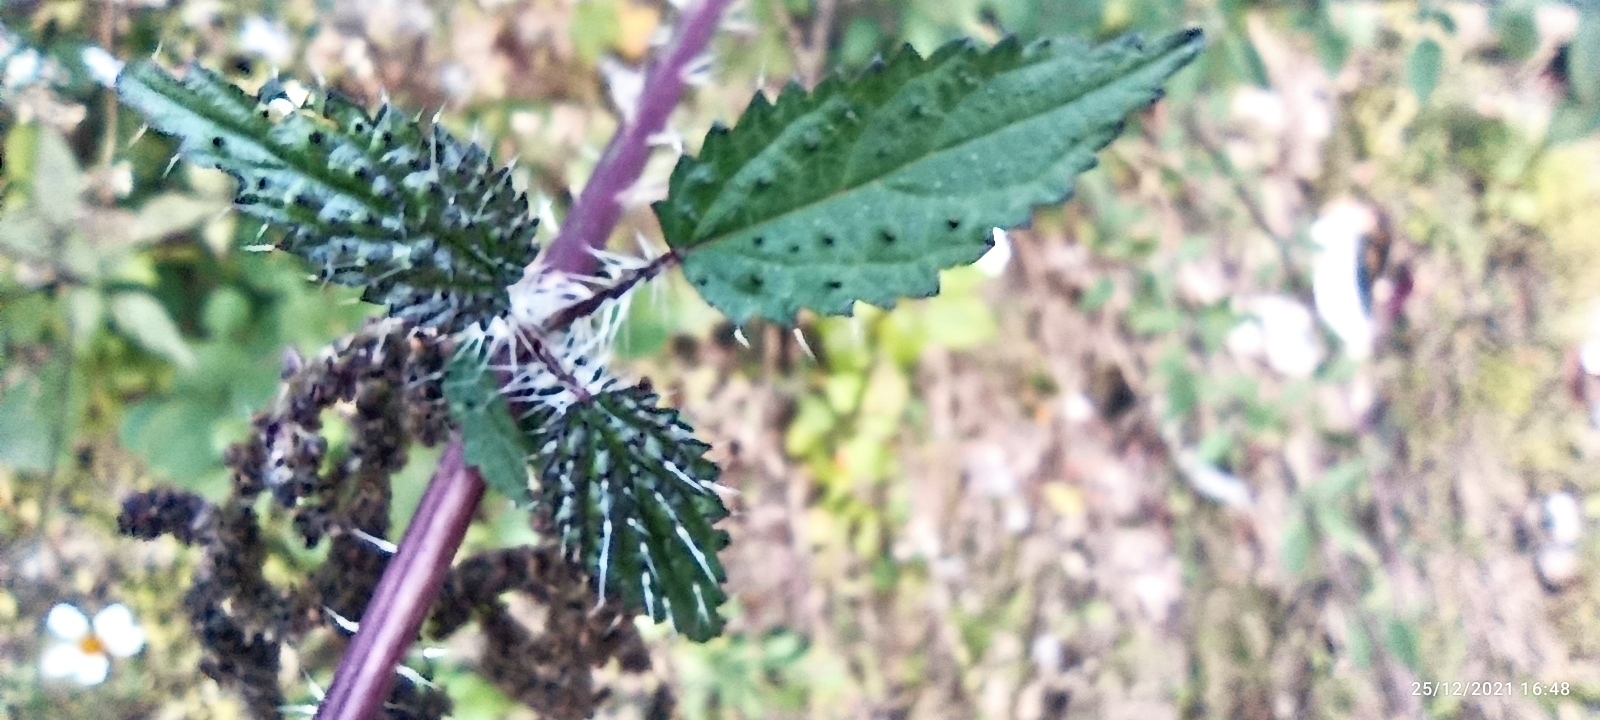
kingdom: Plantae
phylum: Tracheophyta
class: Magnoliopsida
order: Rosales
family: Urticaceae
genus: Urtica
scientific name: Urtica ardens
